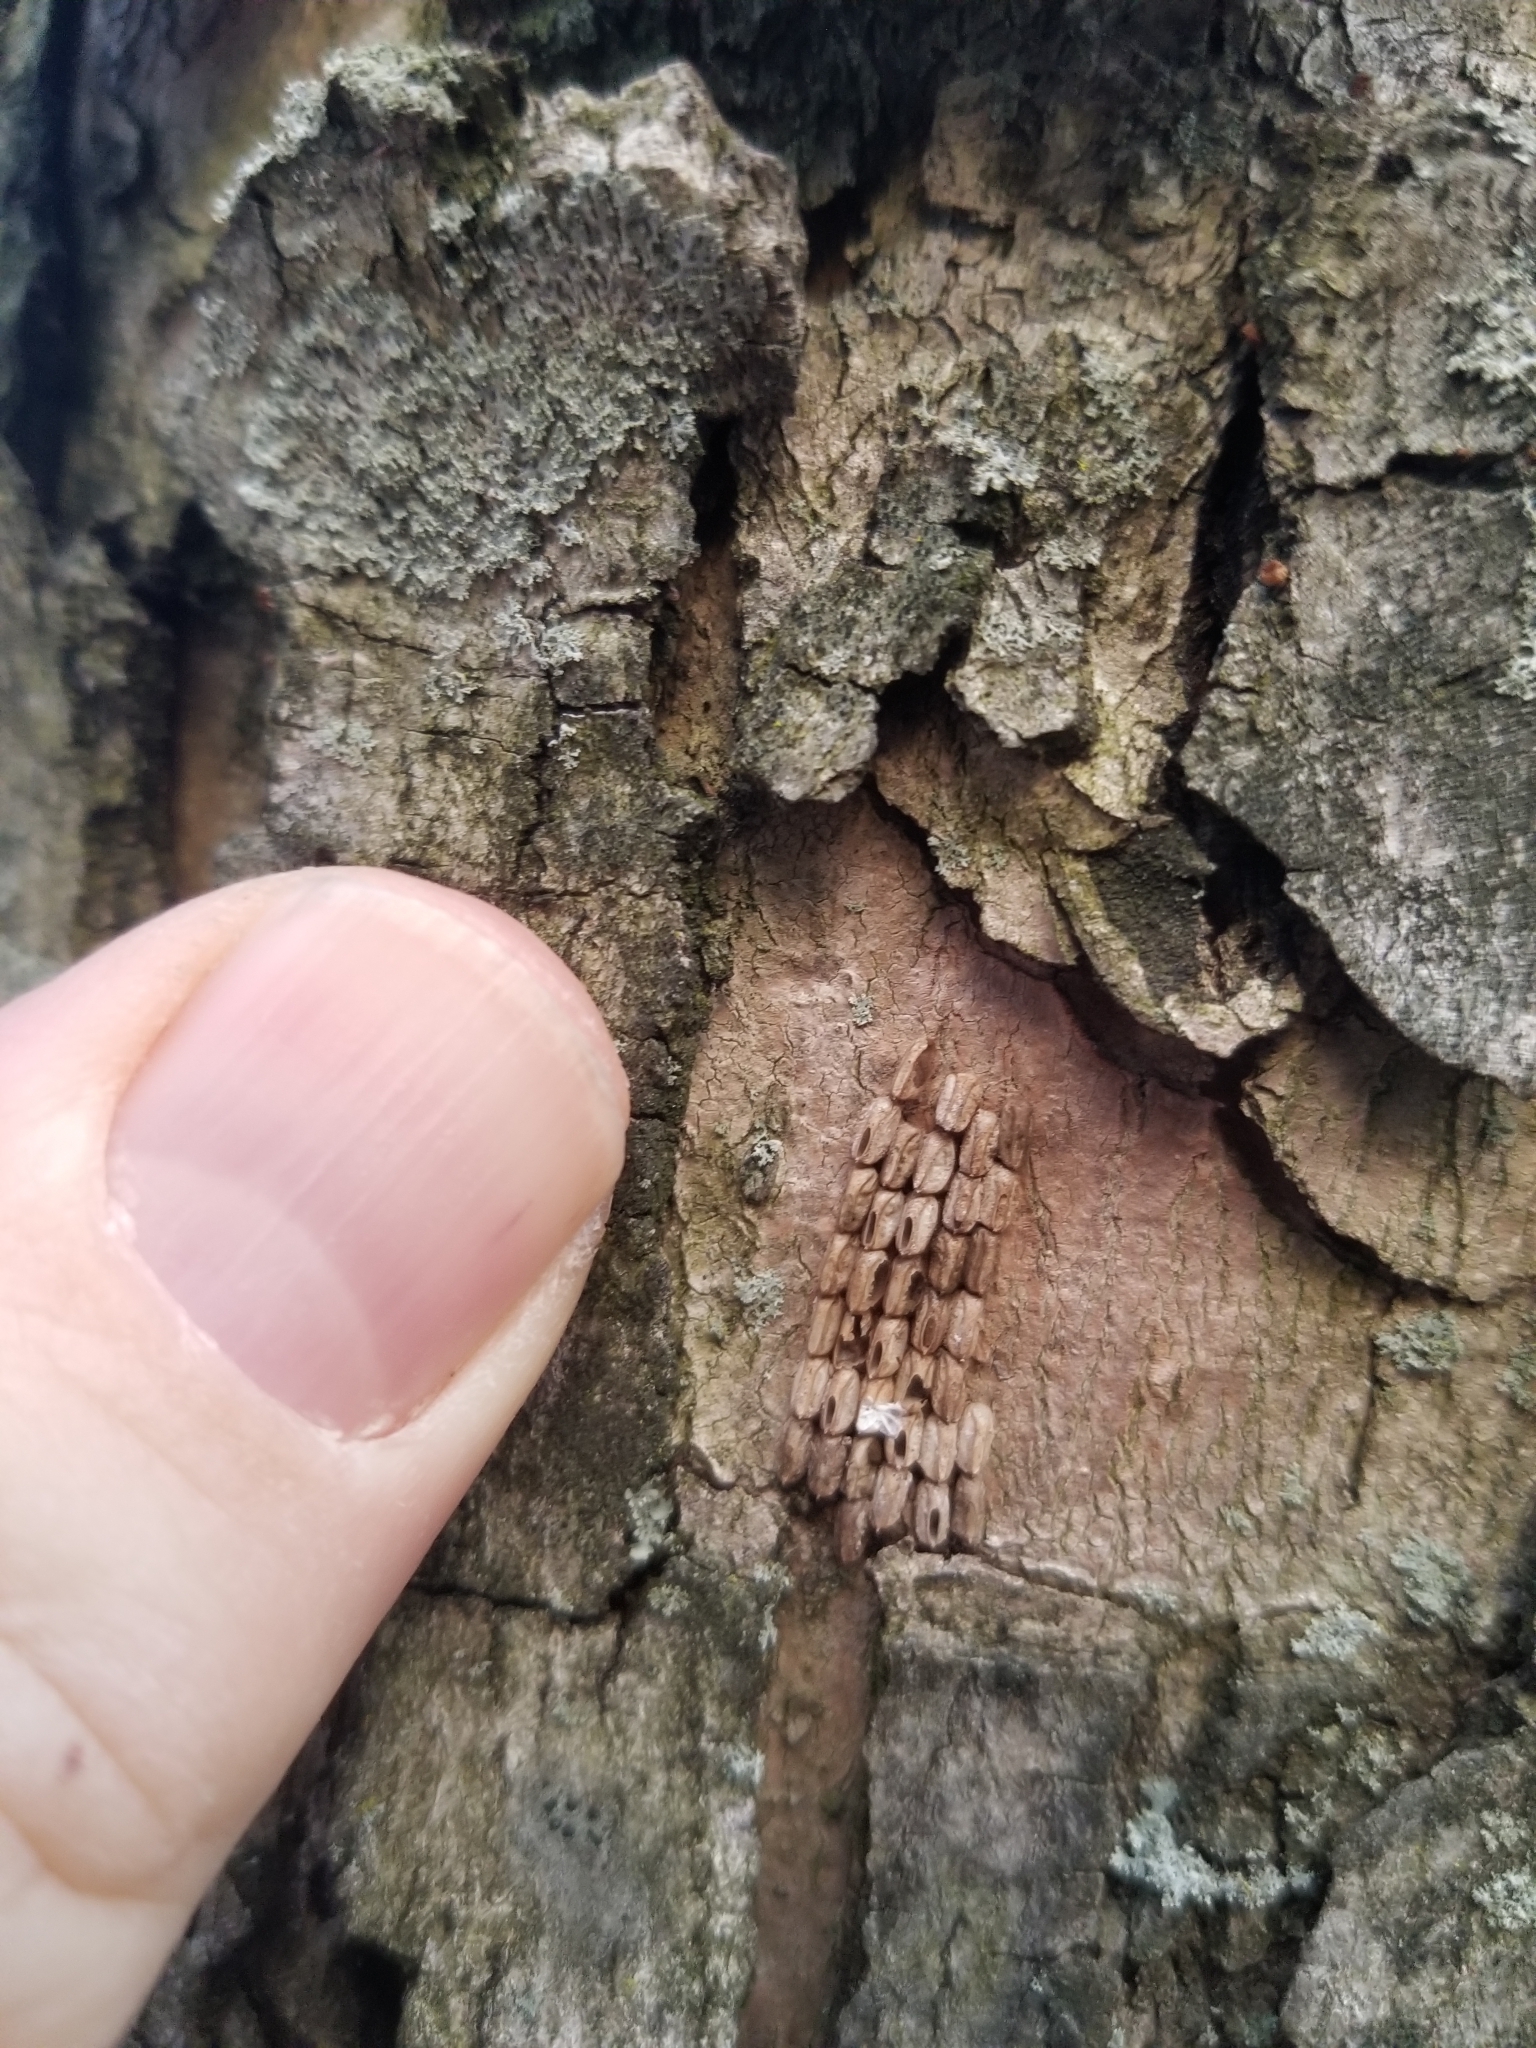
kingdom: Animalia
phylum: Arthropoda
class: Insecta
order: Hemiptera
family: Fulgoridae
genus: Lycorma
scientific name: Lycorma delicatula
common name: Spotted lanternfly
